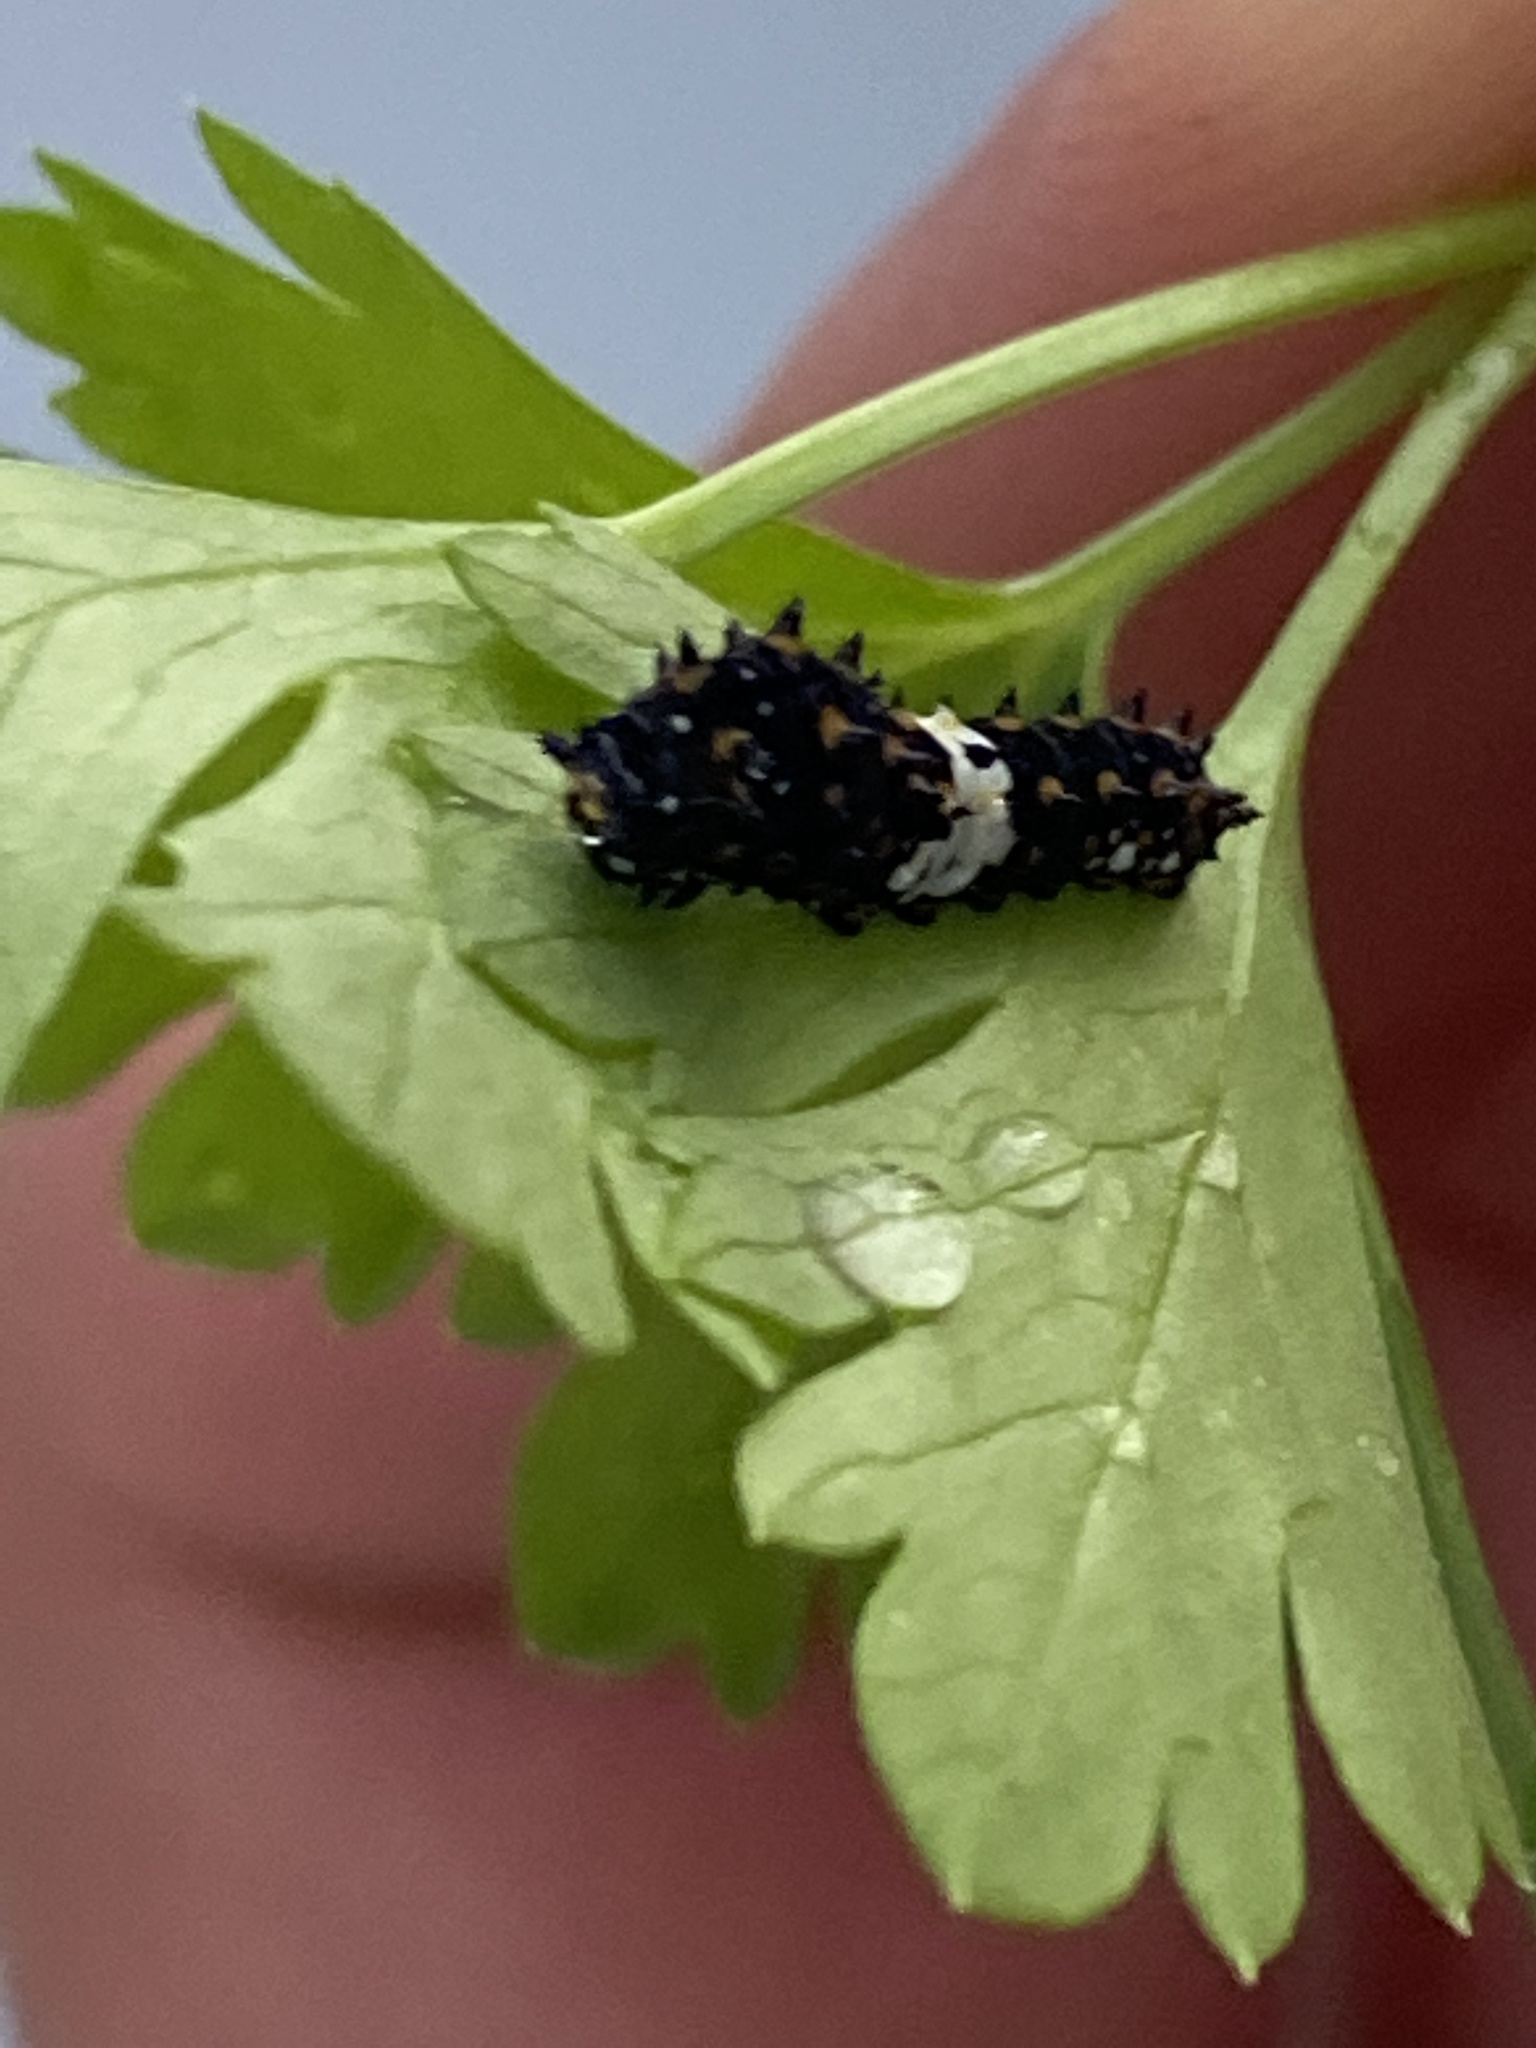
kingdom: Animalia
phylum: Arthropoda
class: Insecta
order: Lepidoptera
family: Papilionidae
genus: Papilio
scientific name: Papilio polyxenes
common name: Black swallowtail
